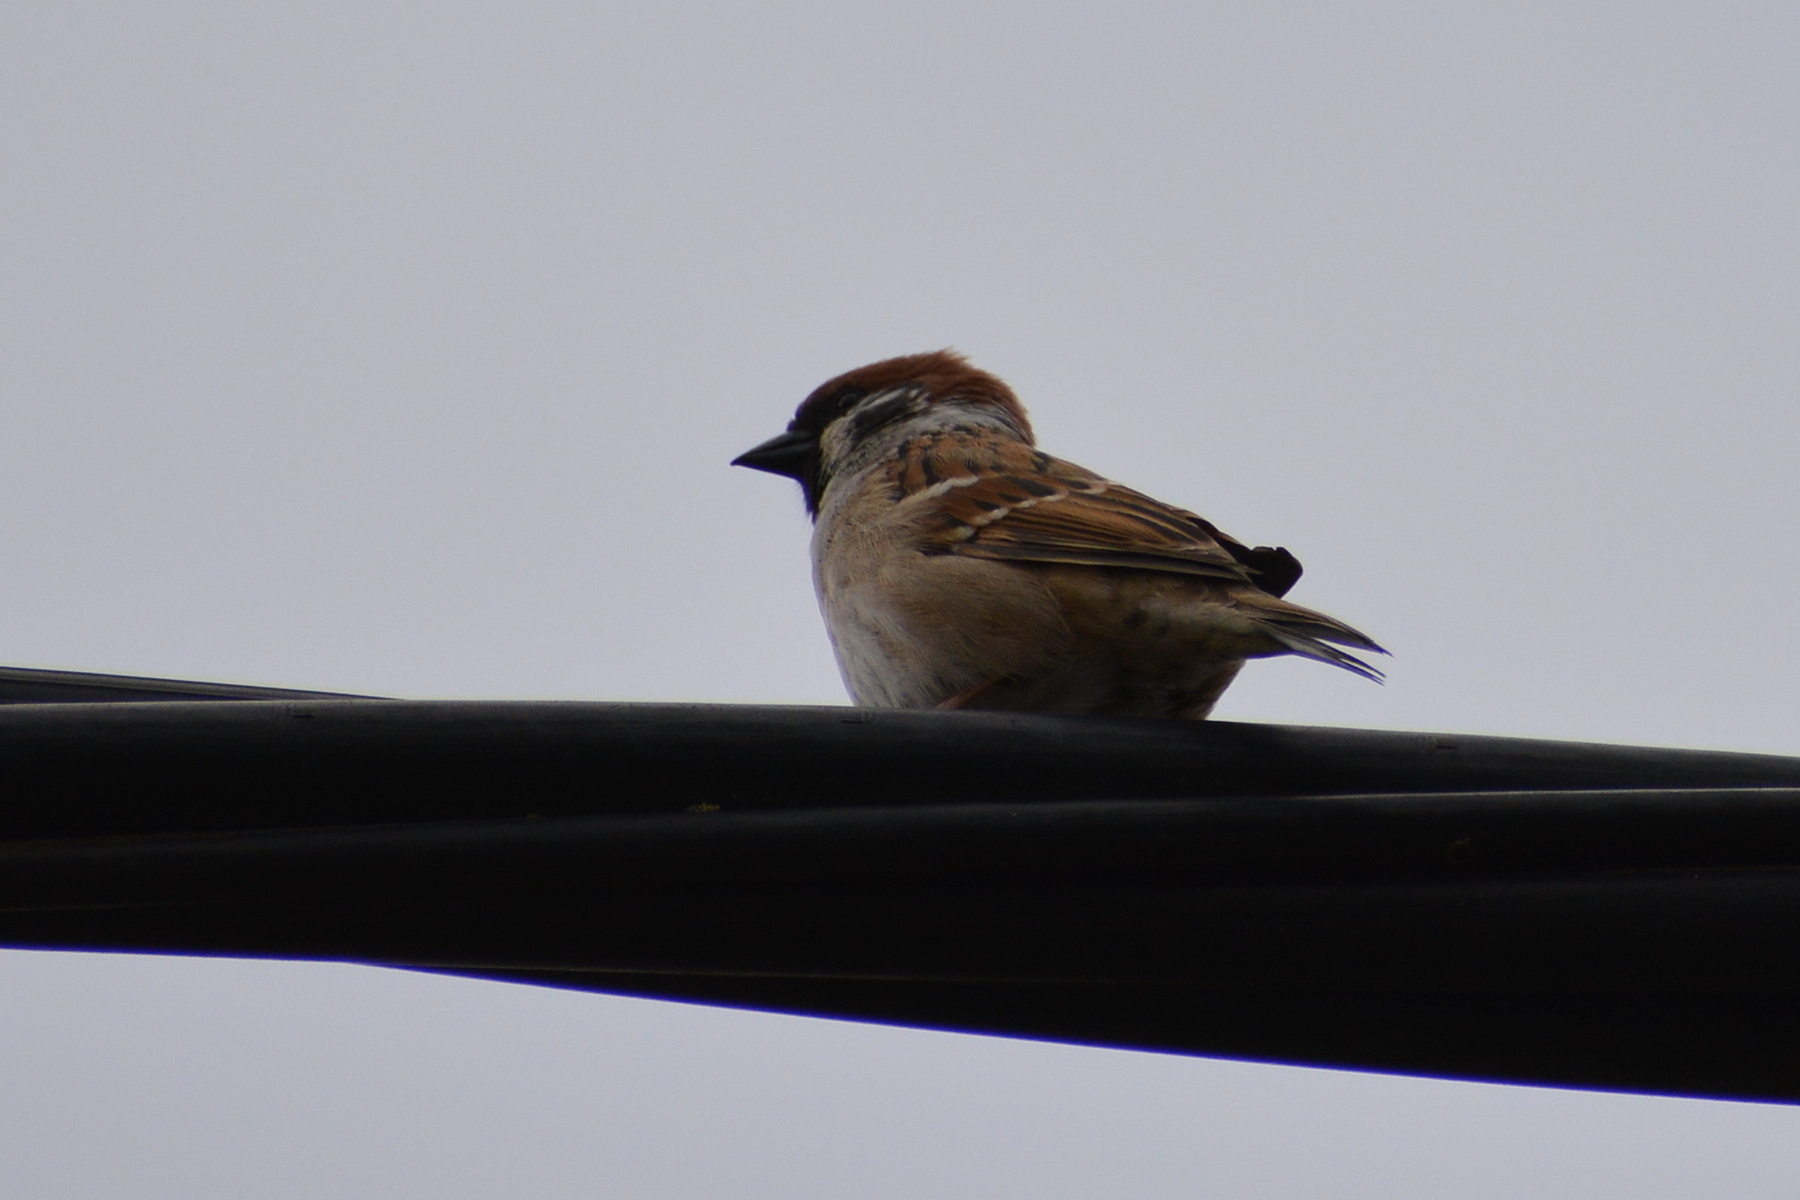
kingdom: Animalia
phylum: Chordata
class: Aves
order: Passeriformes
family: Passeridae
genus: Passer
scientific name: Passer montanus
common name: Eurasian tree sparrow
